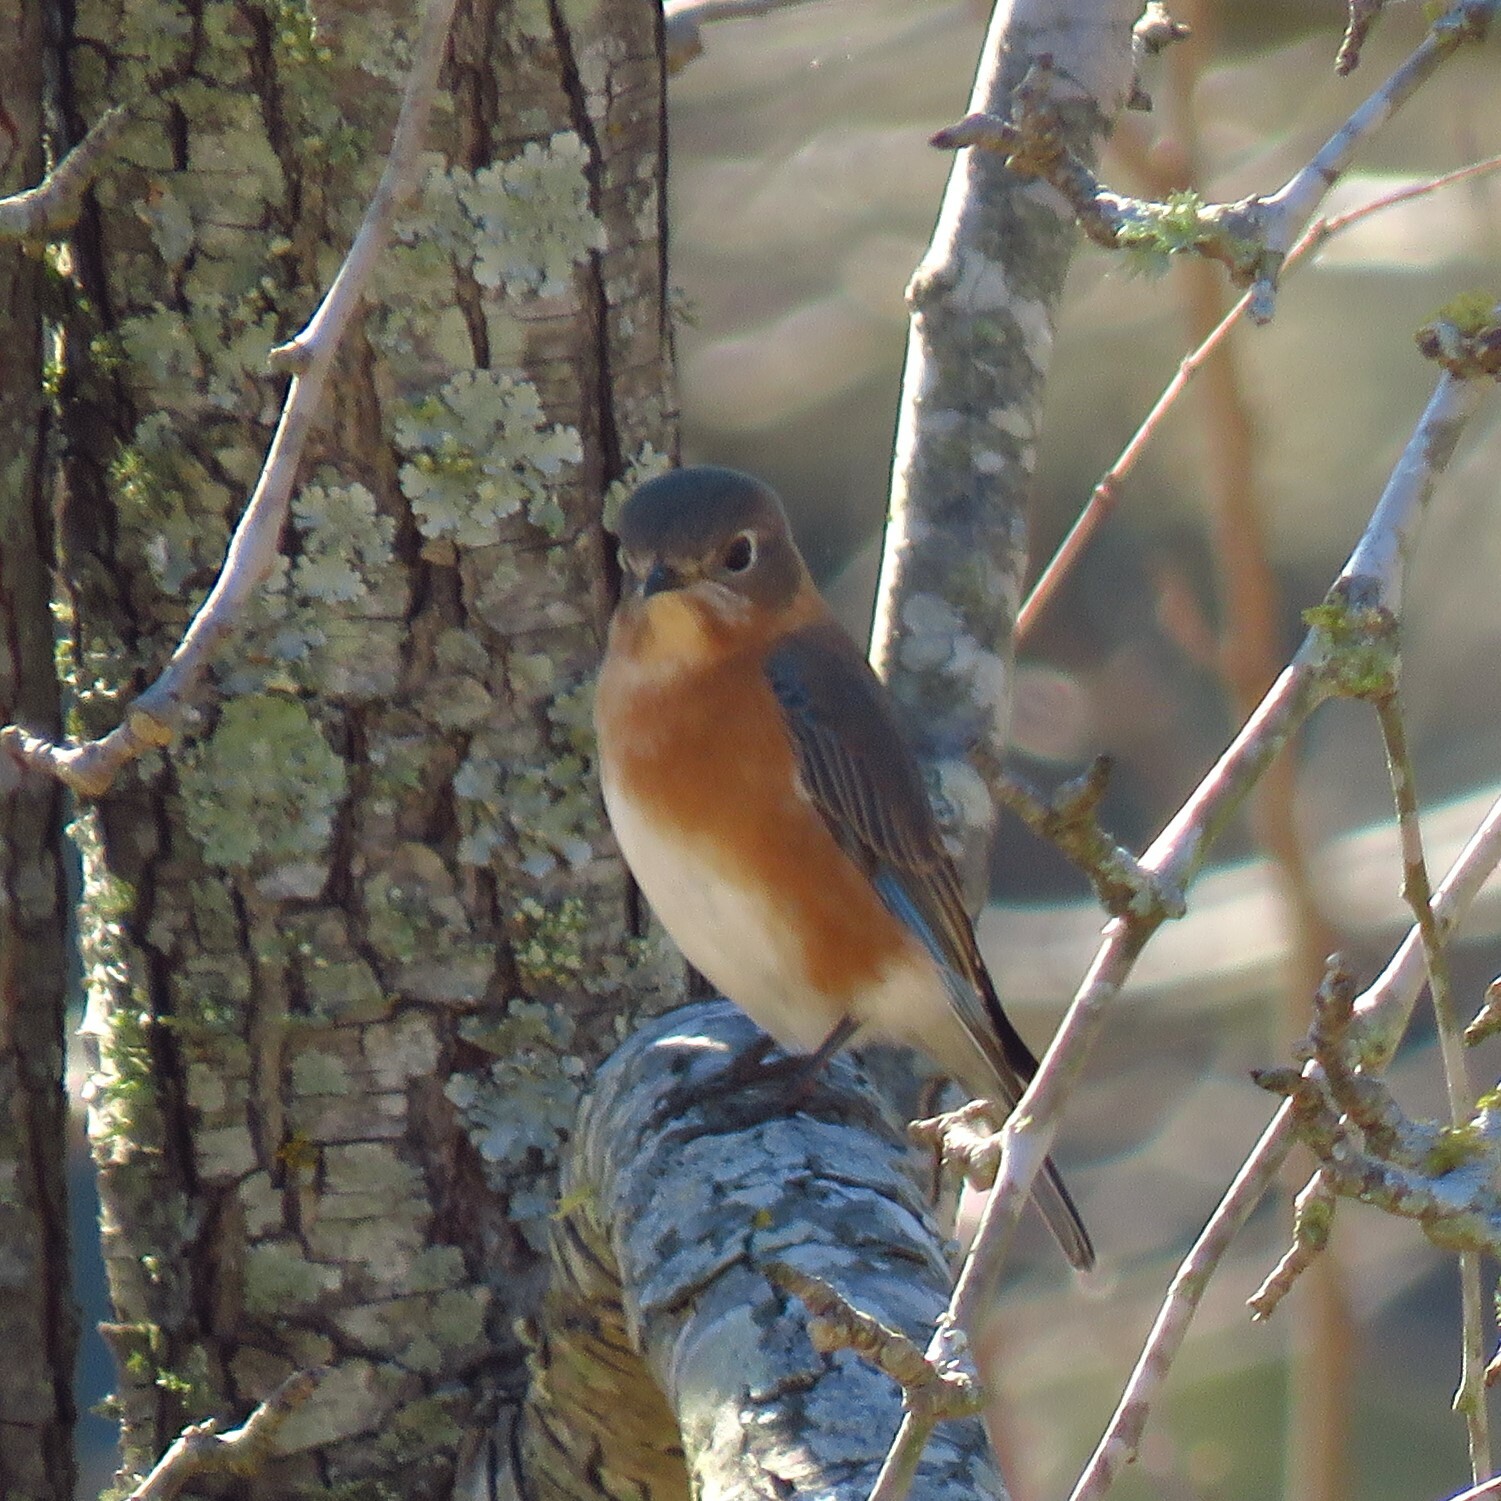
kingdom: Animalia
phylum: Chordata
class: Aves
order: Passeriformes
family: Turdidae
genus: Sialia
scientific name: Sialia sialis
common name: Eastern bluebird
